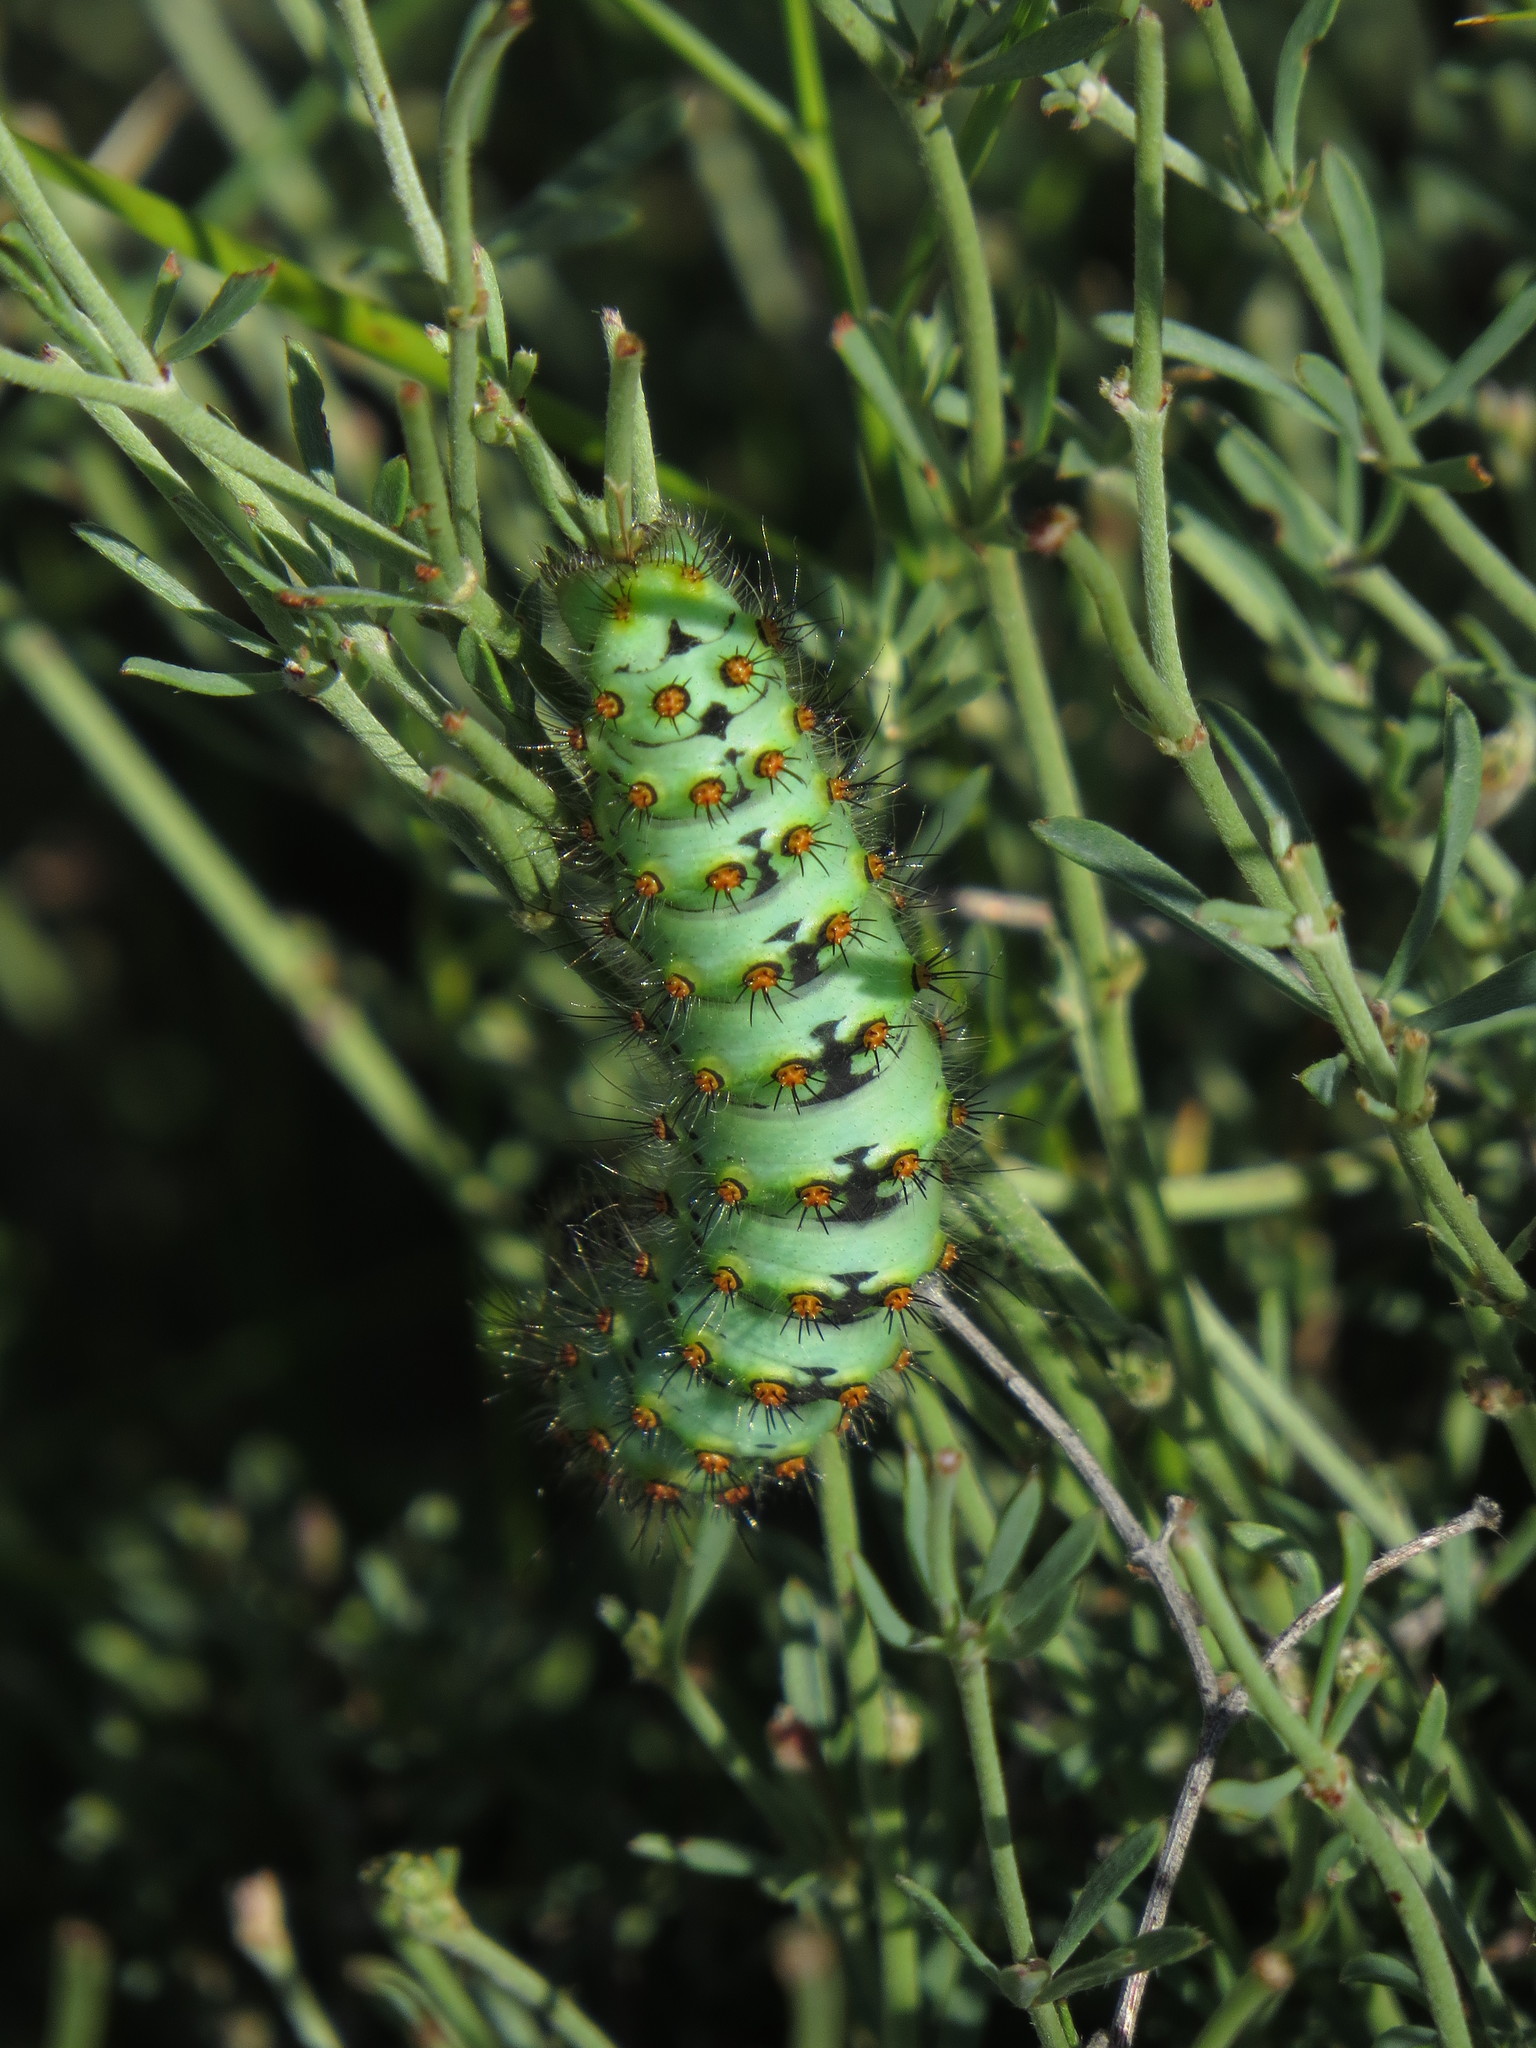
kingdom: Animalia
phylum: Arthropoda
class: Insecta
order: Lepidoptera
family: Saturniidae
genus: Saturnia
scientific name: Saturnia pavonia
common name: Emperor moth
